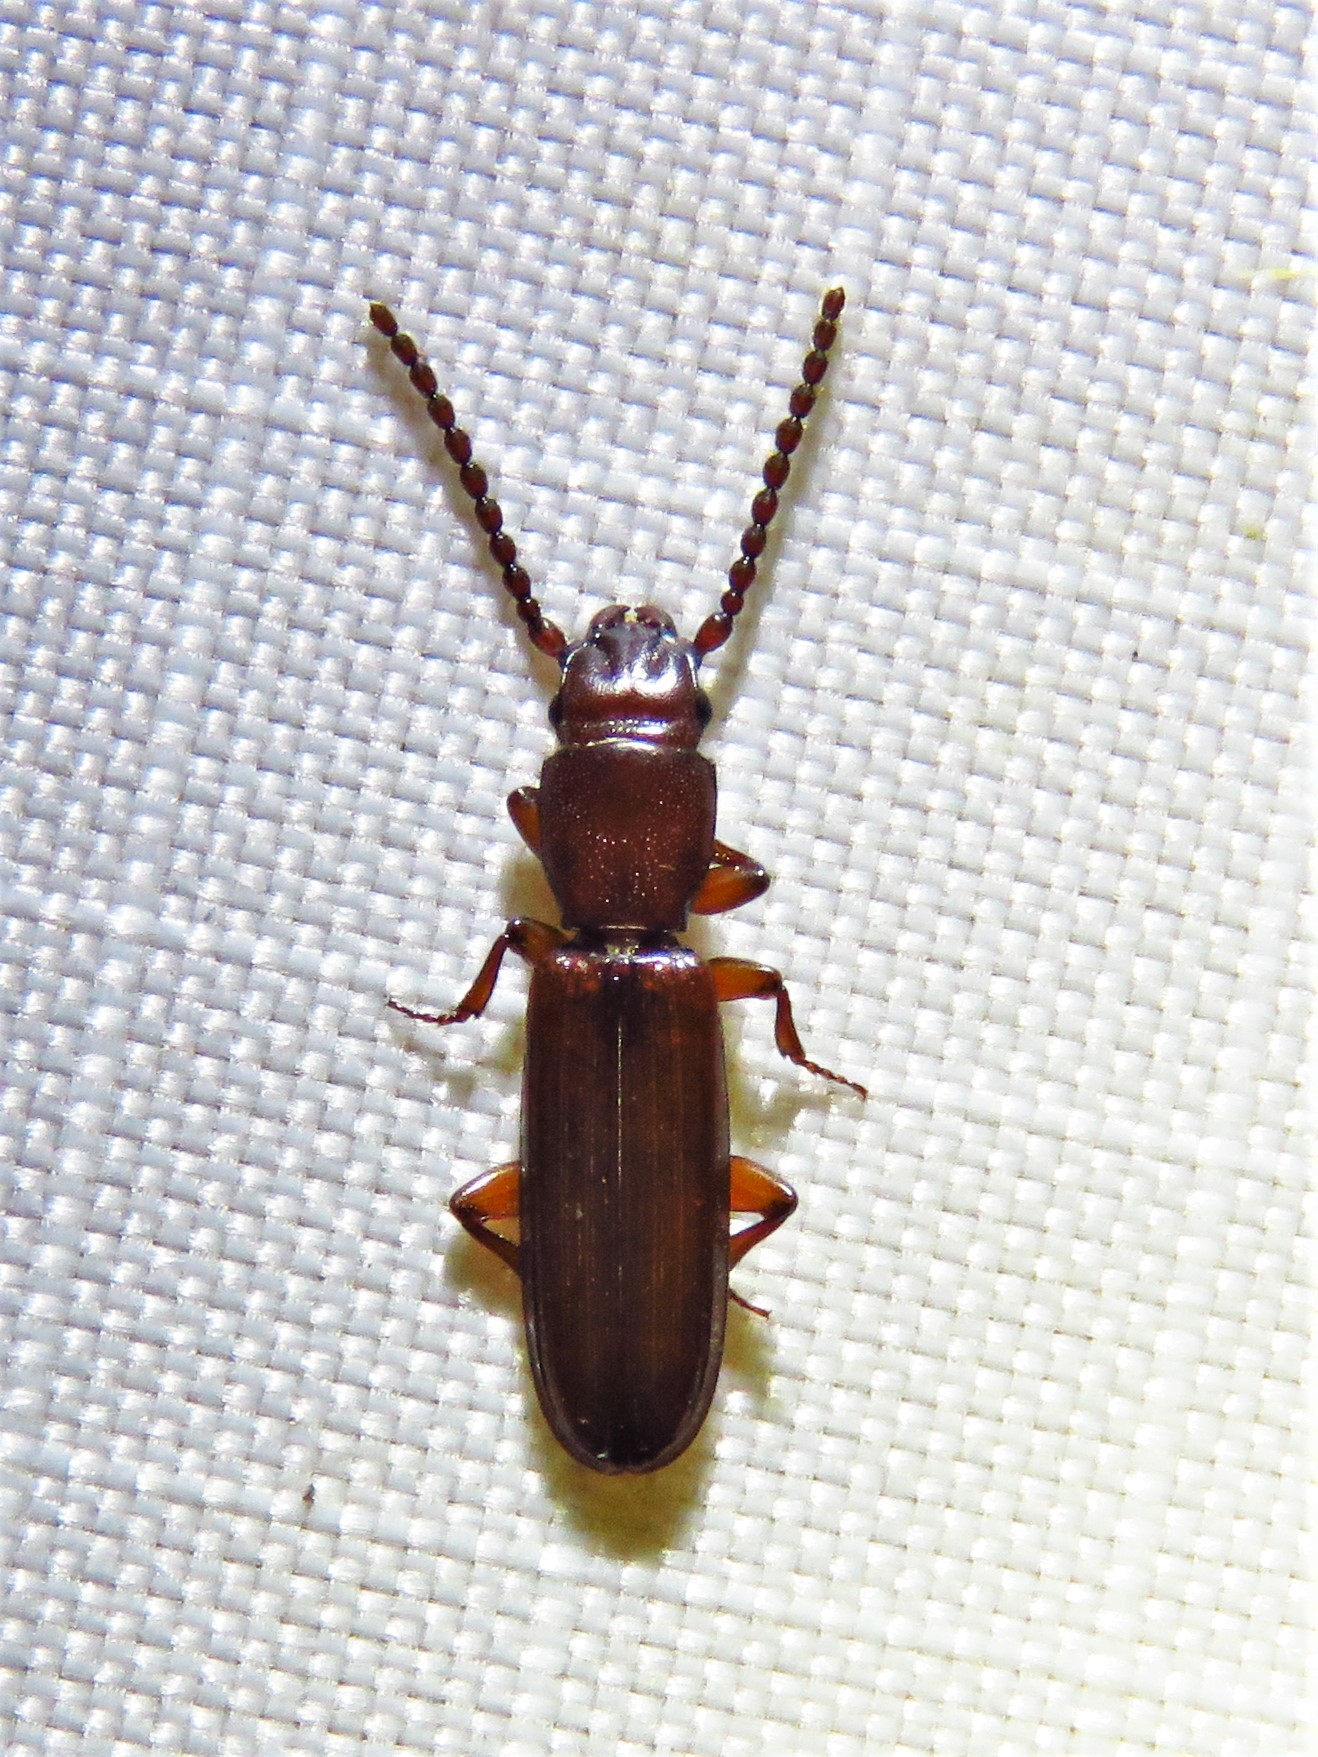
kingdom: Animalia
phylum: Arthropoda
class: Insecta
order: Coleoptera
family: Passandridae
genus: Catogenus
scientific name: Catogenus rufus
